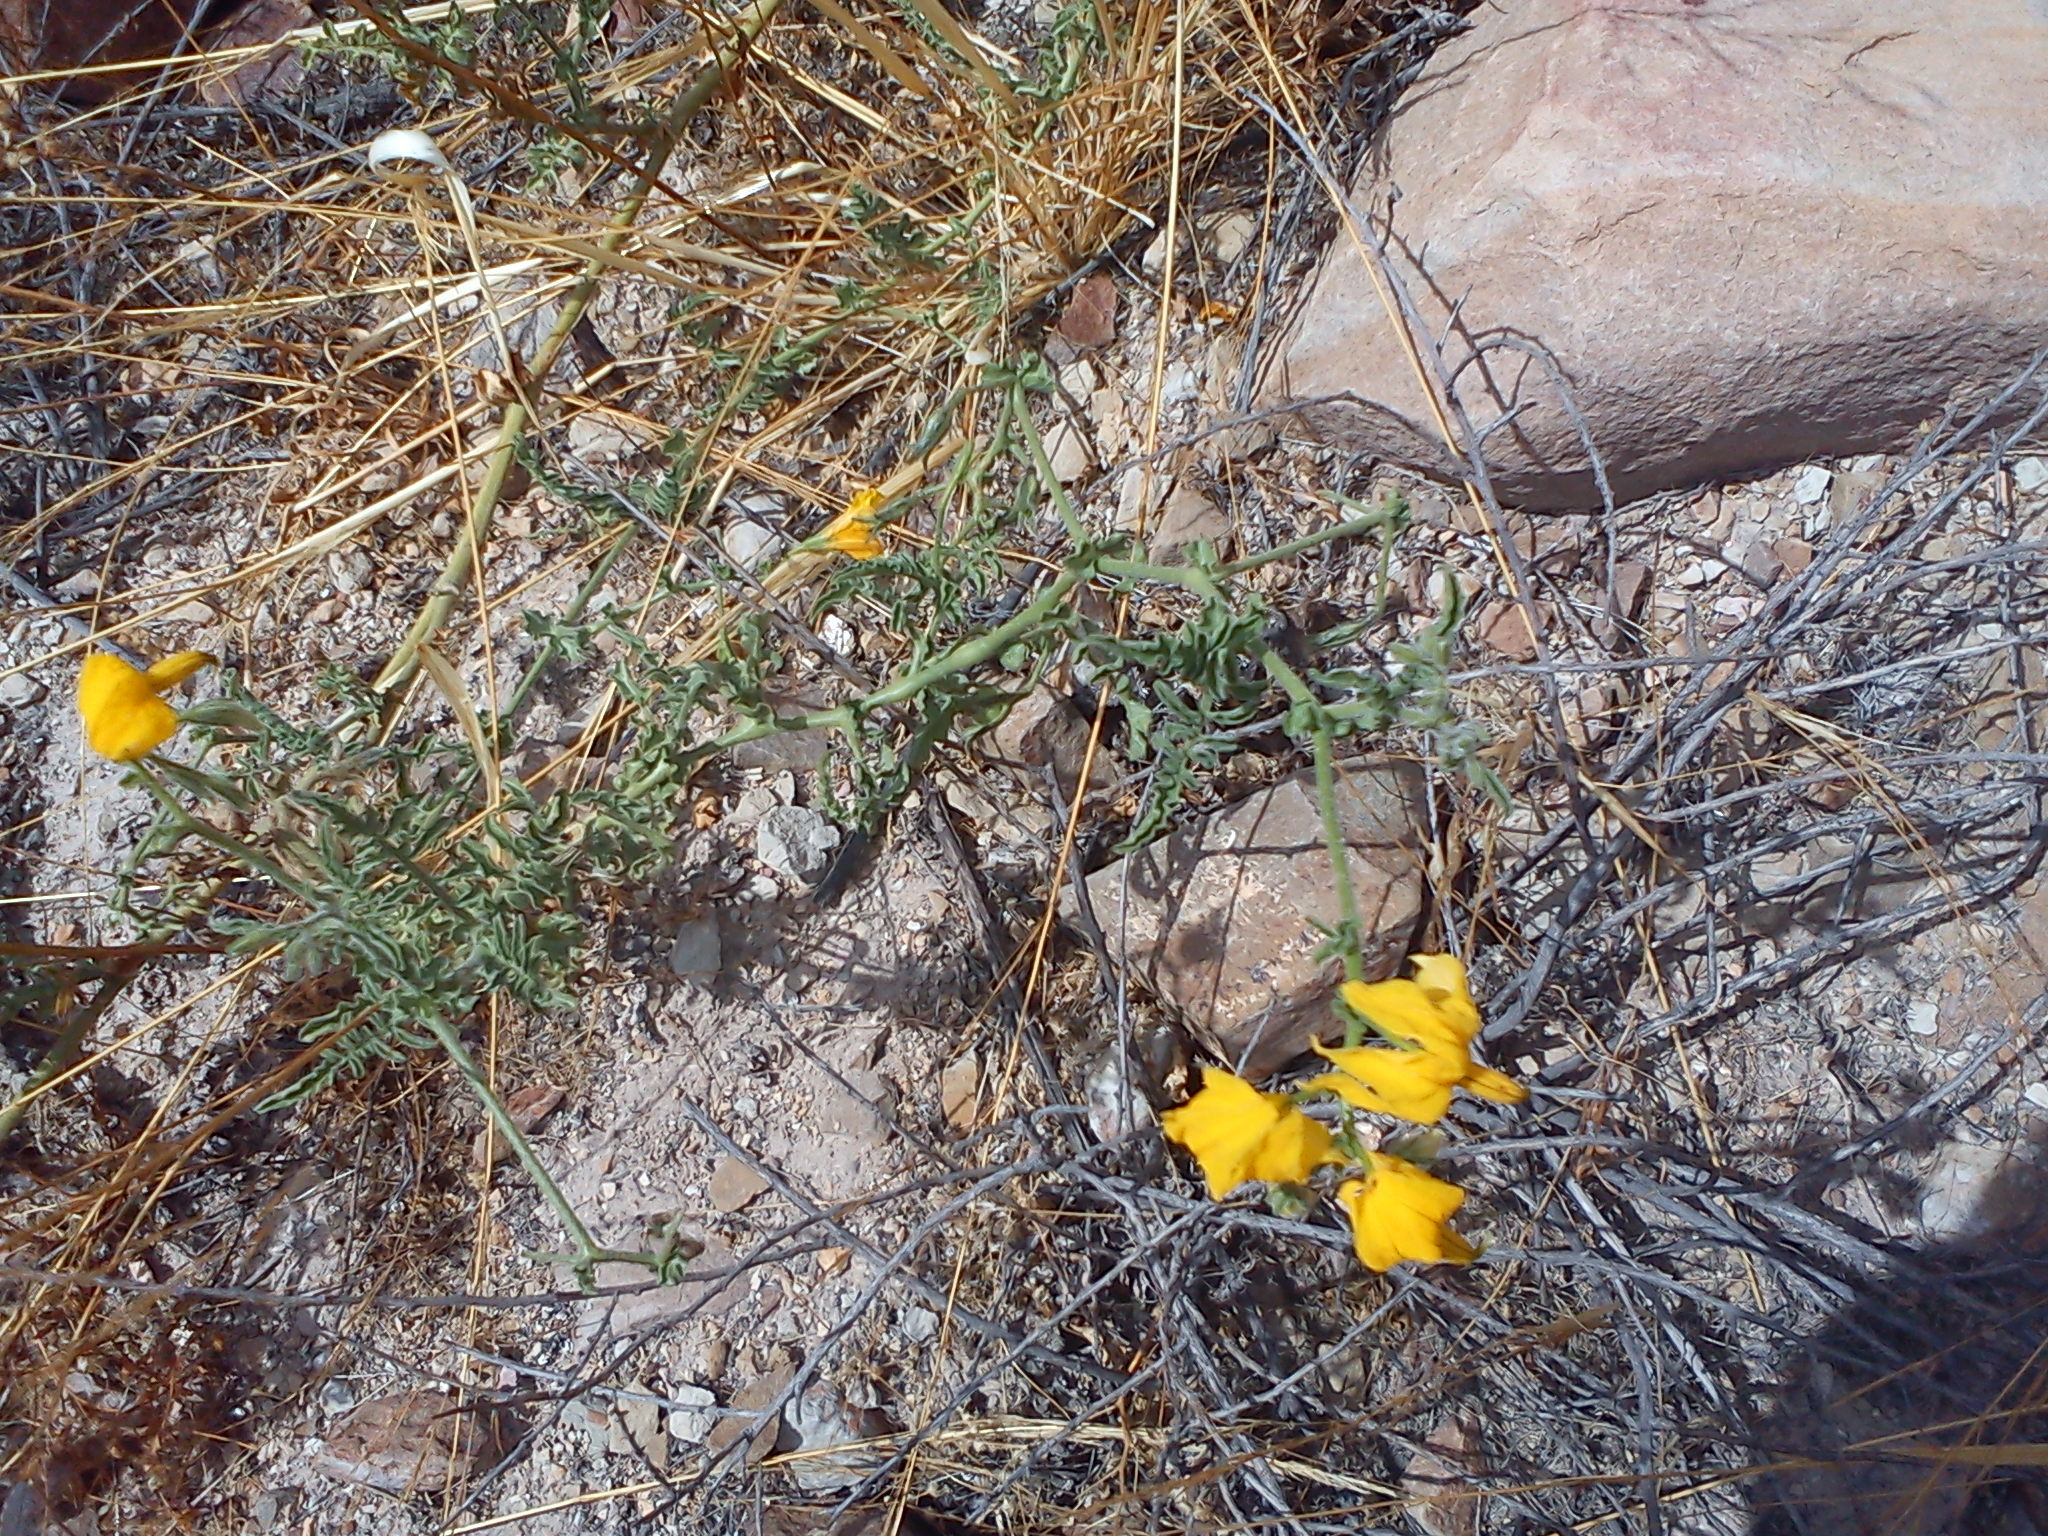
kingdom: Plantae
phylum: Tracheophyta
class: Magnoliopsida
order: Solanales
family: Solanaceae
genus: Solanum
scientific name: Solanum peruvianum
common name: Peruvian nightshade
